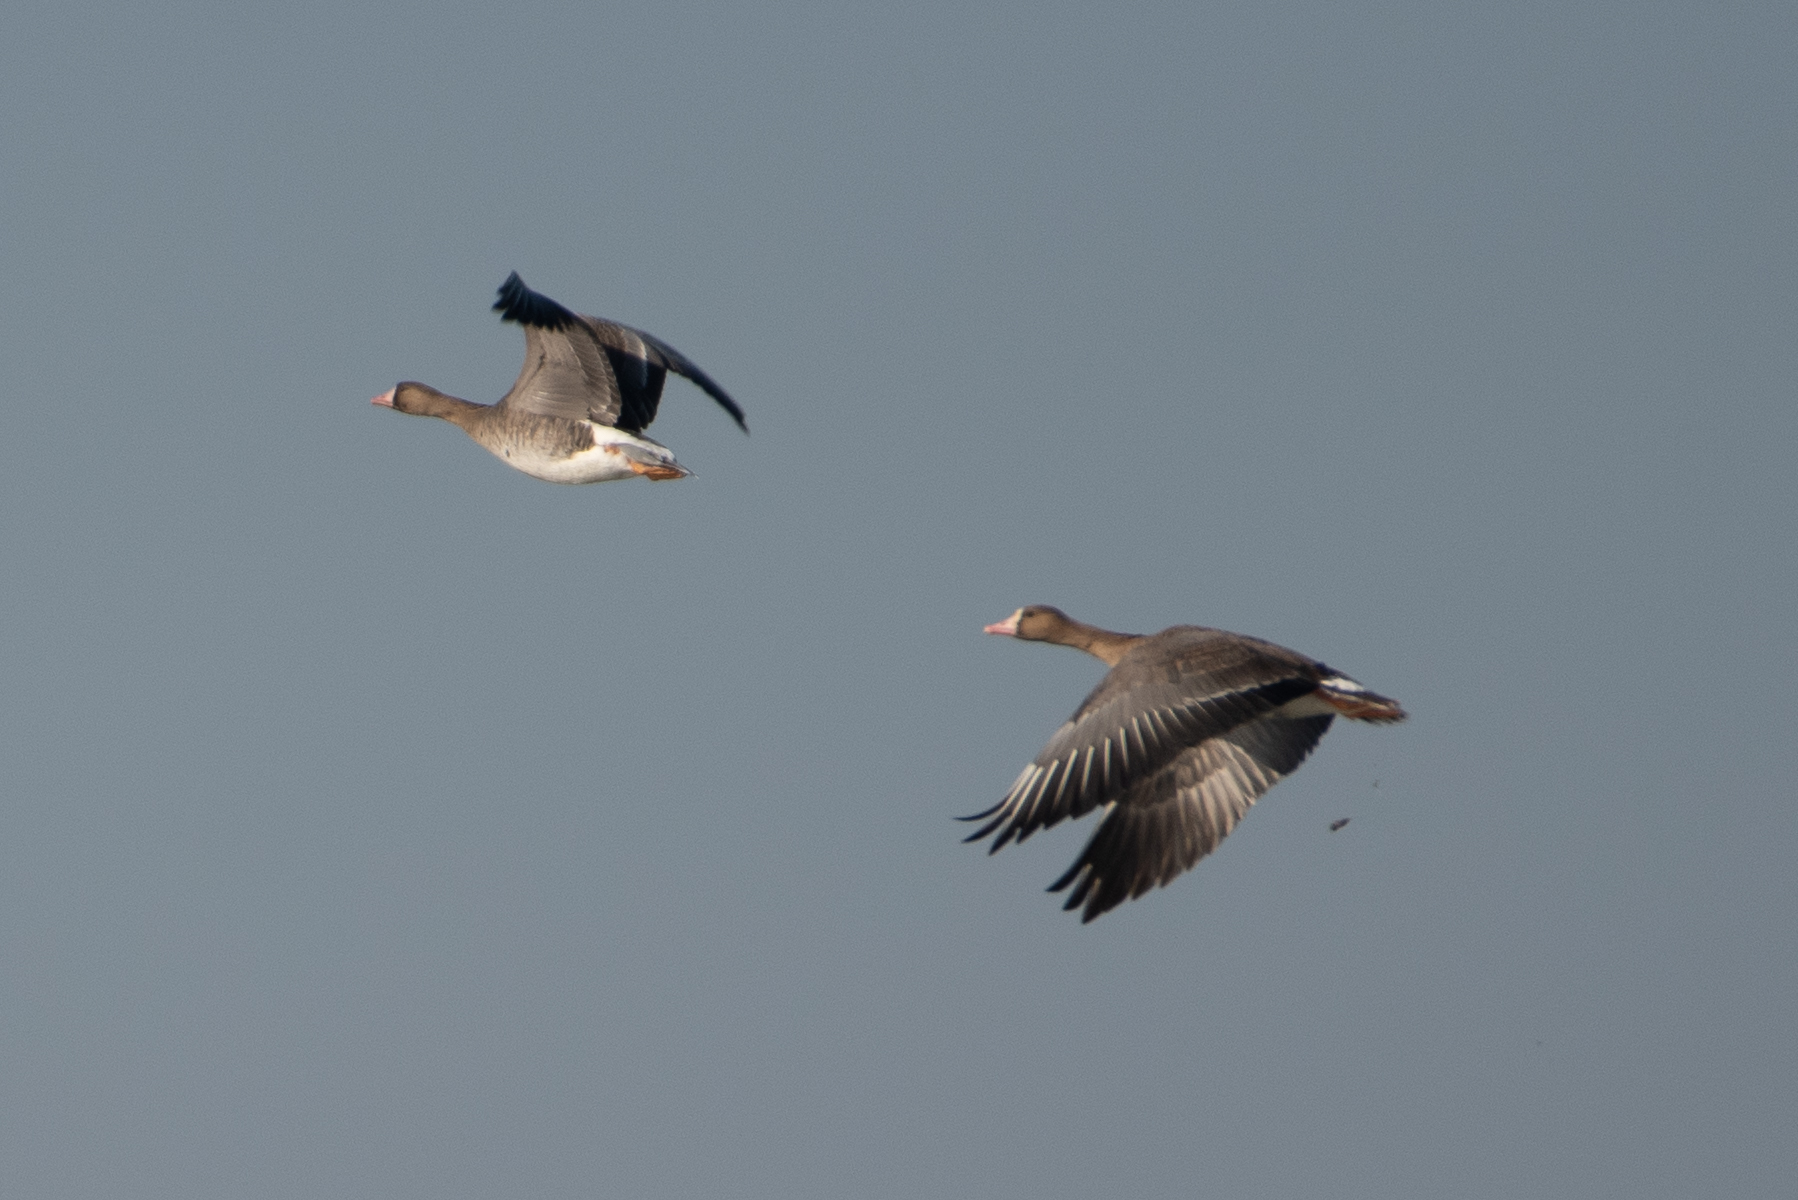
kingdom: Animalia
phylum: Chordata
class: Aves
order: Anseriformes
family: Anatidae
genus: Anser
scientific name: Anser albifrons
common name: Greater white-fronted goose
